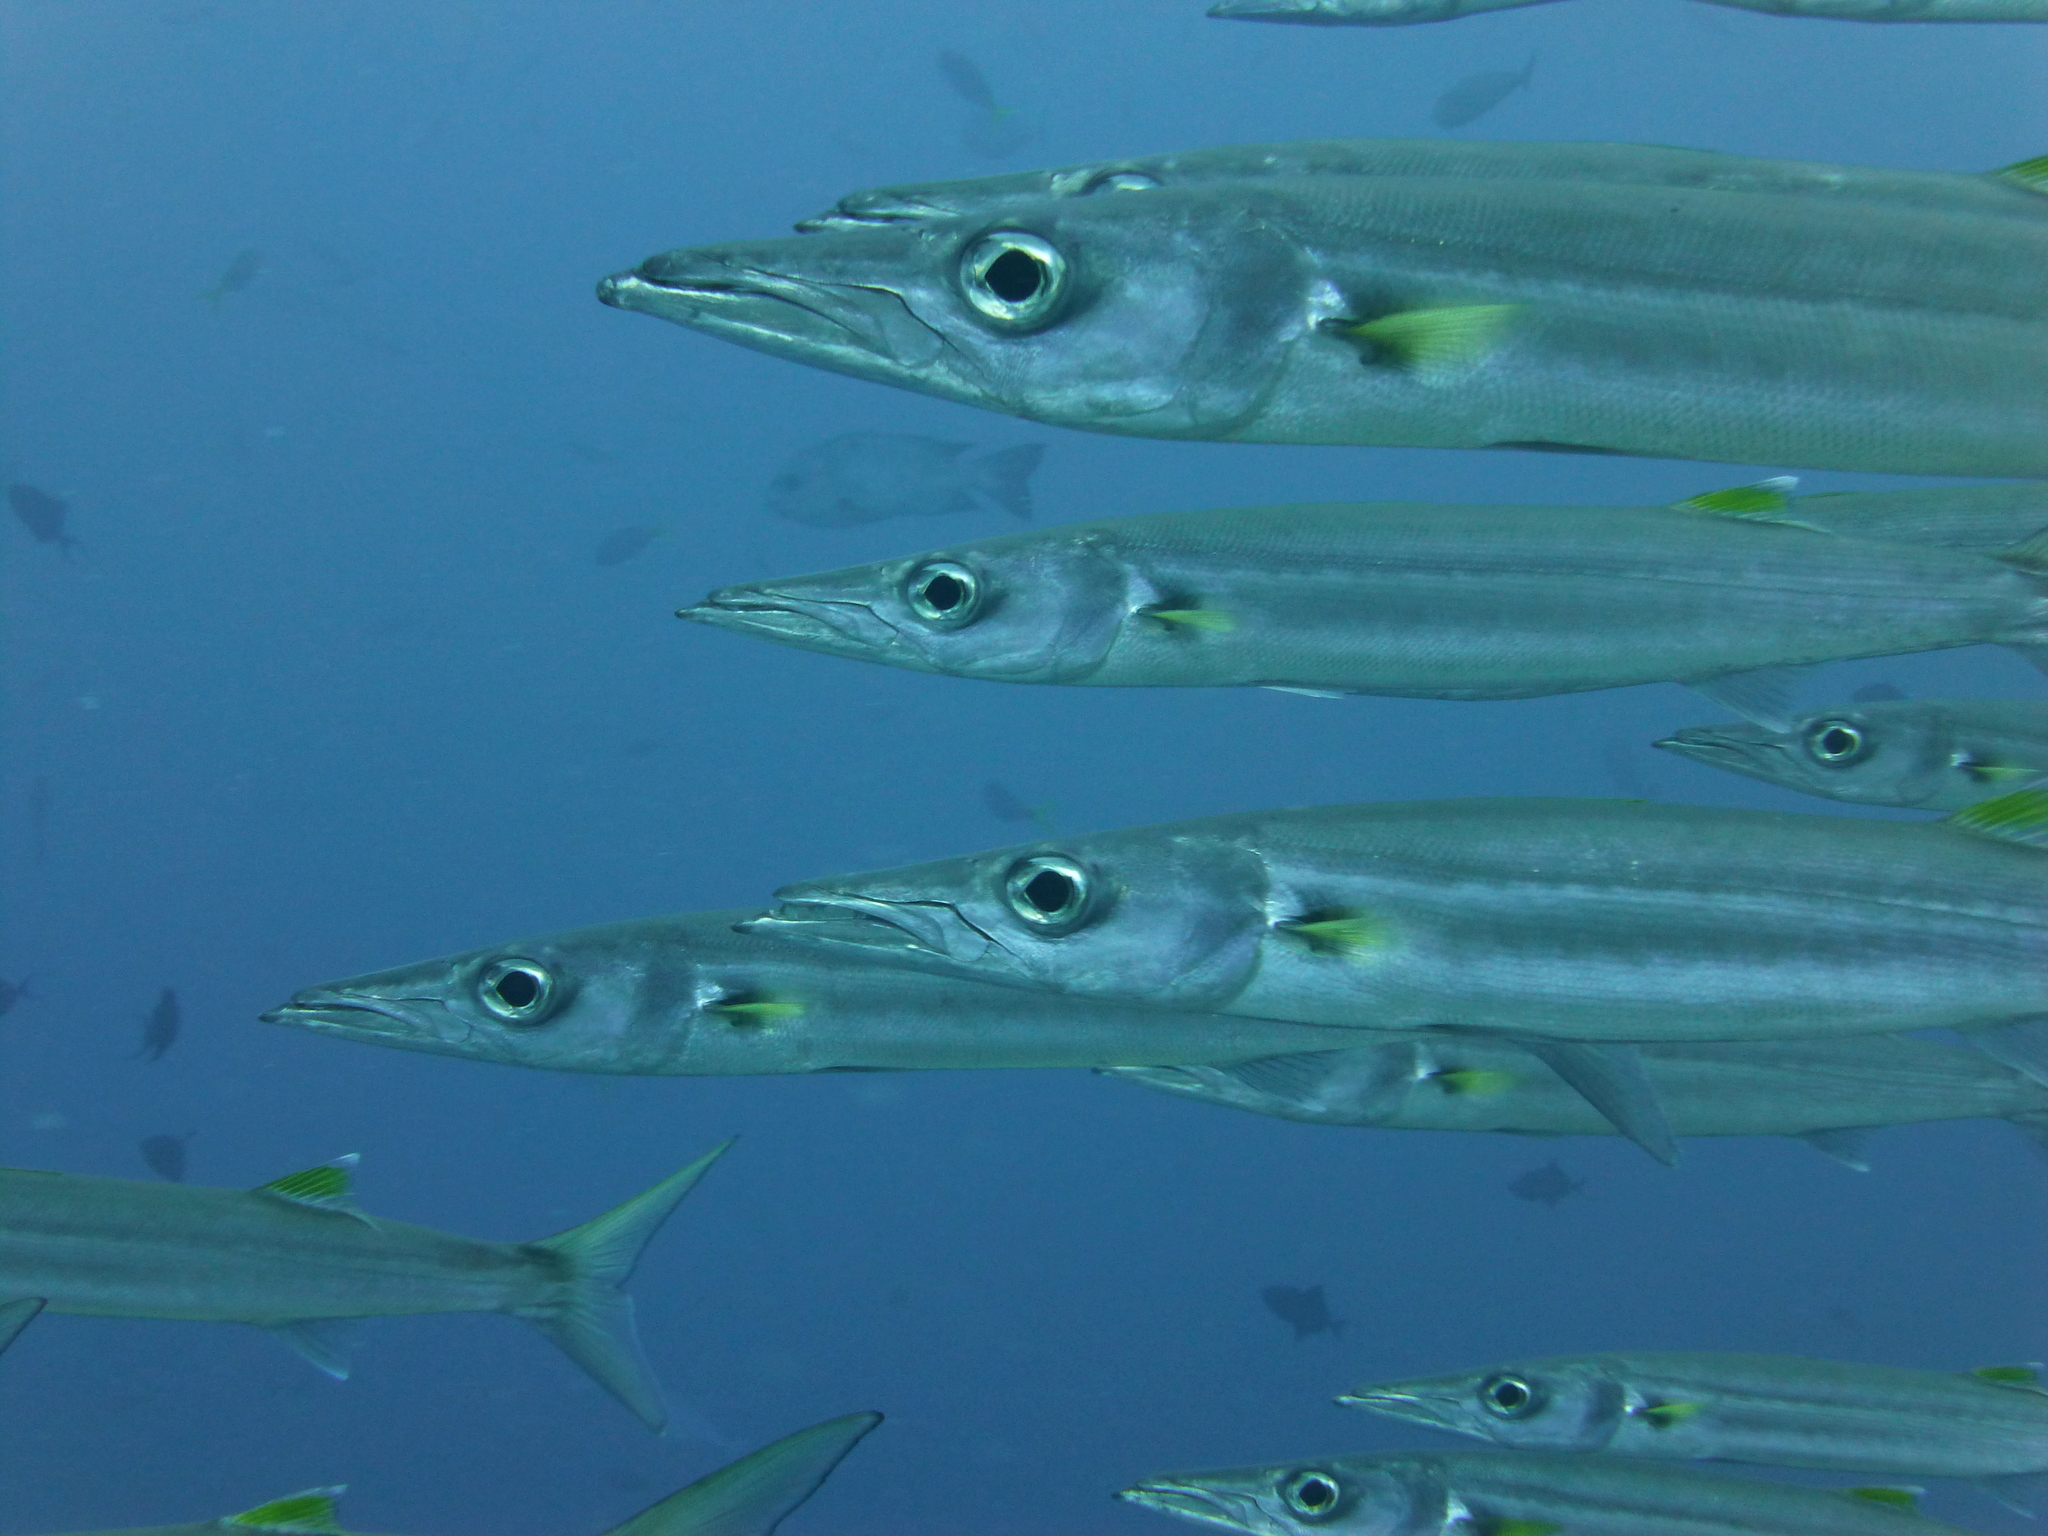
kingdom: Animalia
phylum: Chordata
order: Perciformes
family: Sphyraenidae
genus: Sphyraena
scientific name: Sphyraena forsteri
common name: Bigeye barracuda
